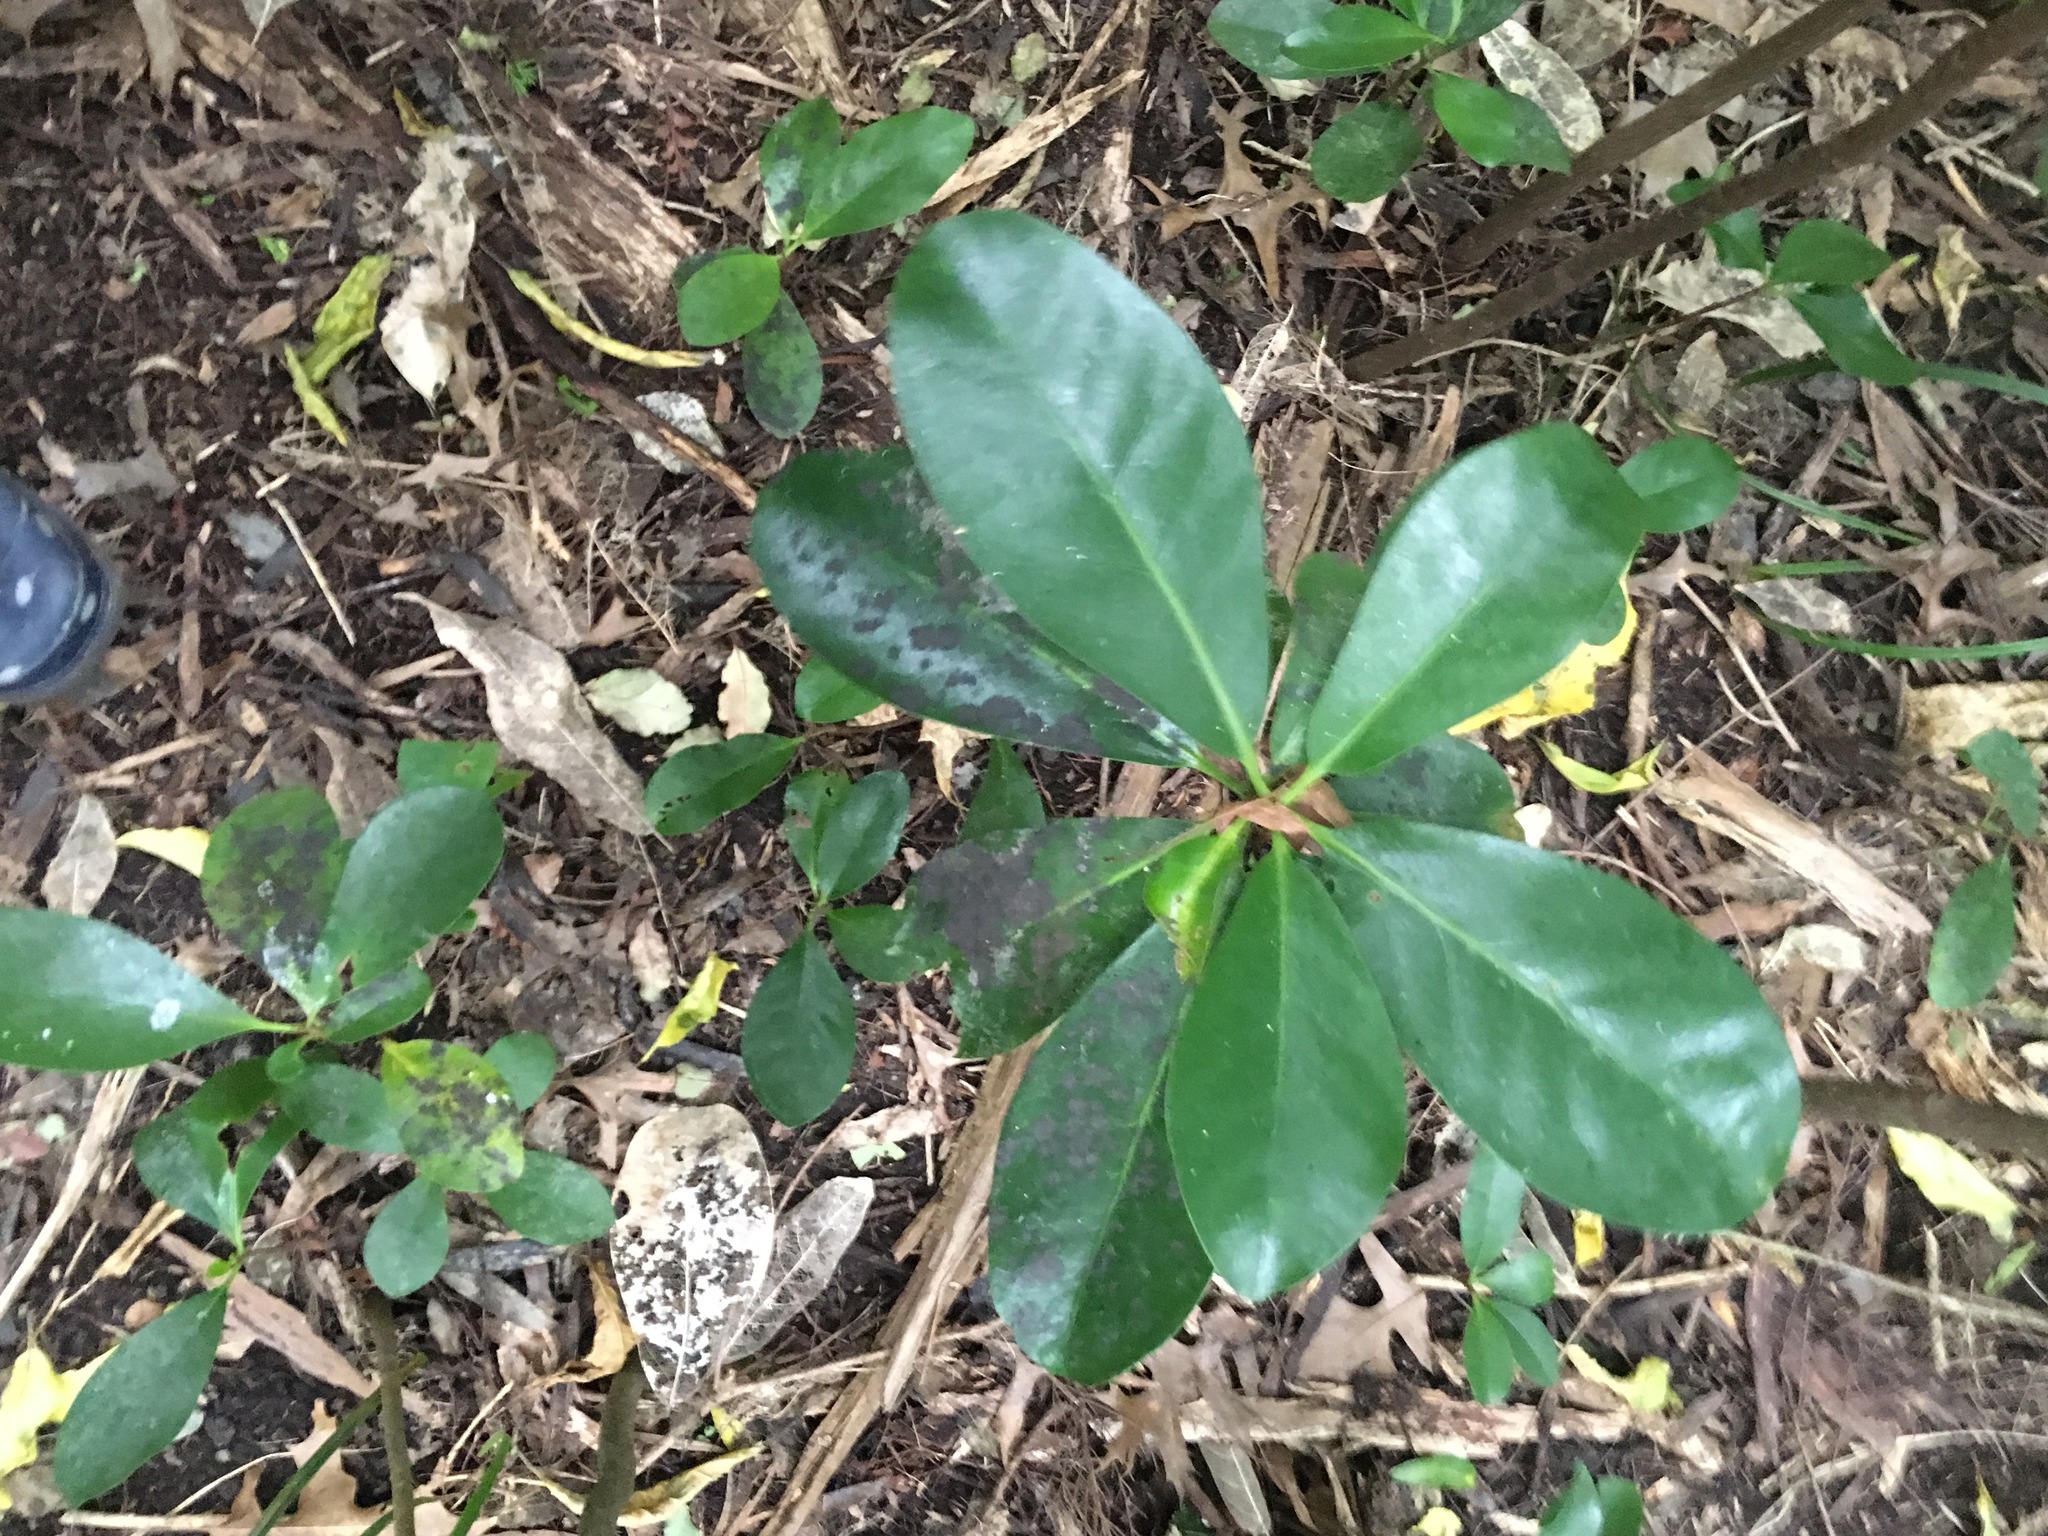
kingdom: Plantae
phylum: Tracheophyta
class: Magnoliopsida
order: Cucurbitales
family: Corynocarpaceae
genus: Corynocarpus
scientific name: Corynocarpus laevigatus
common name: New zealand laurel
